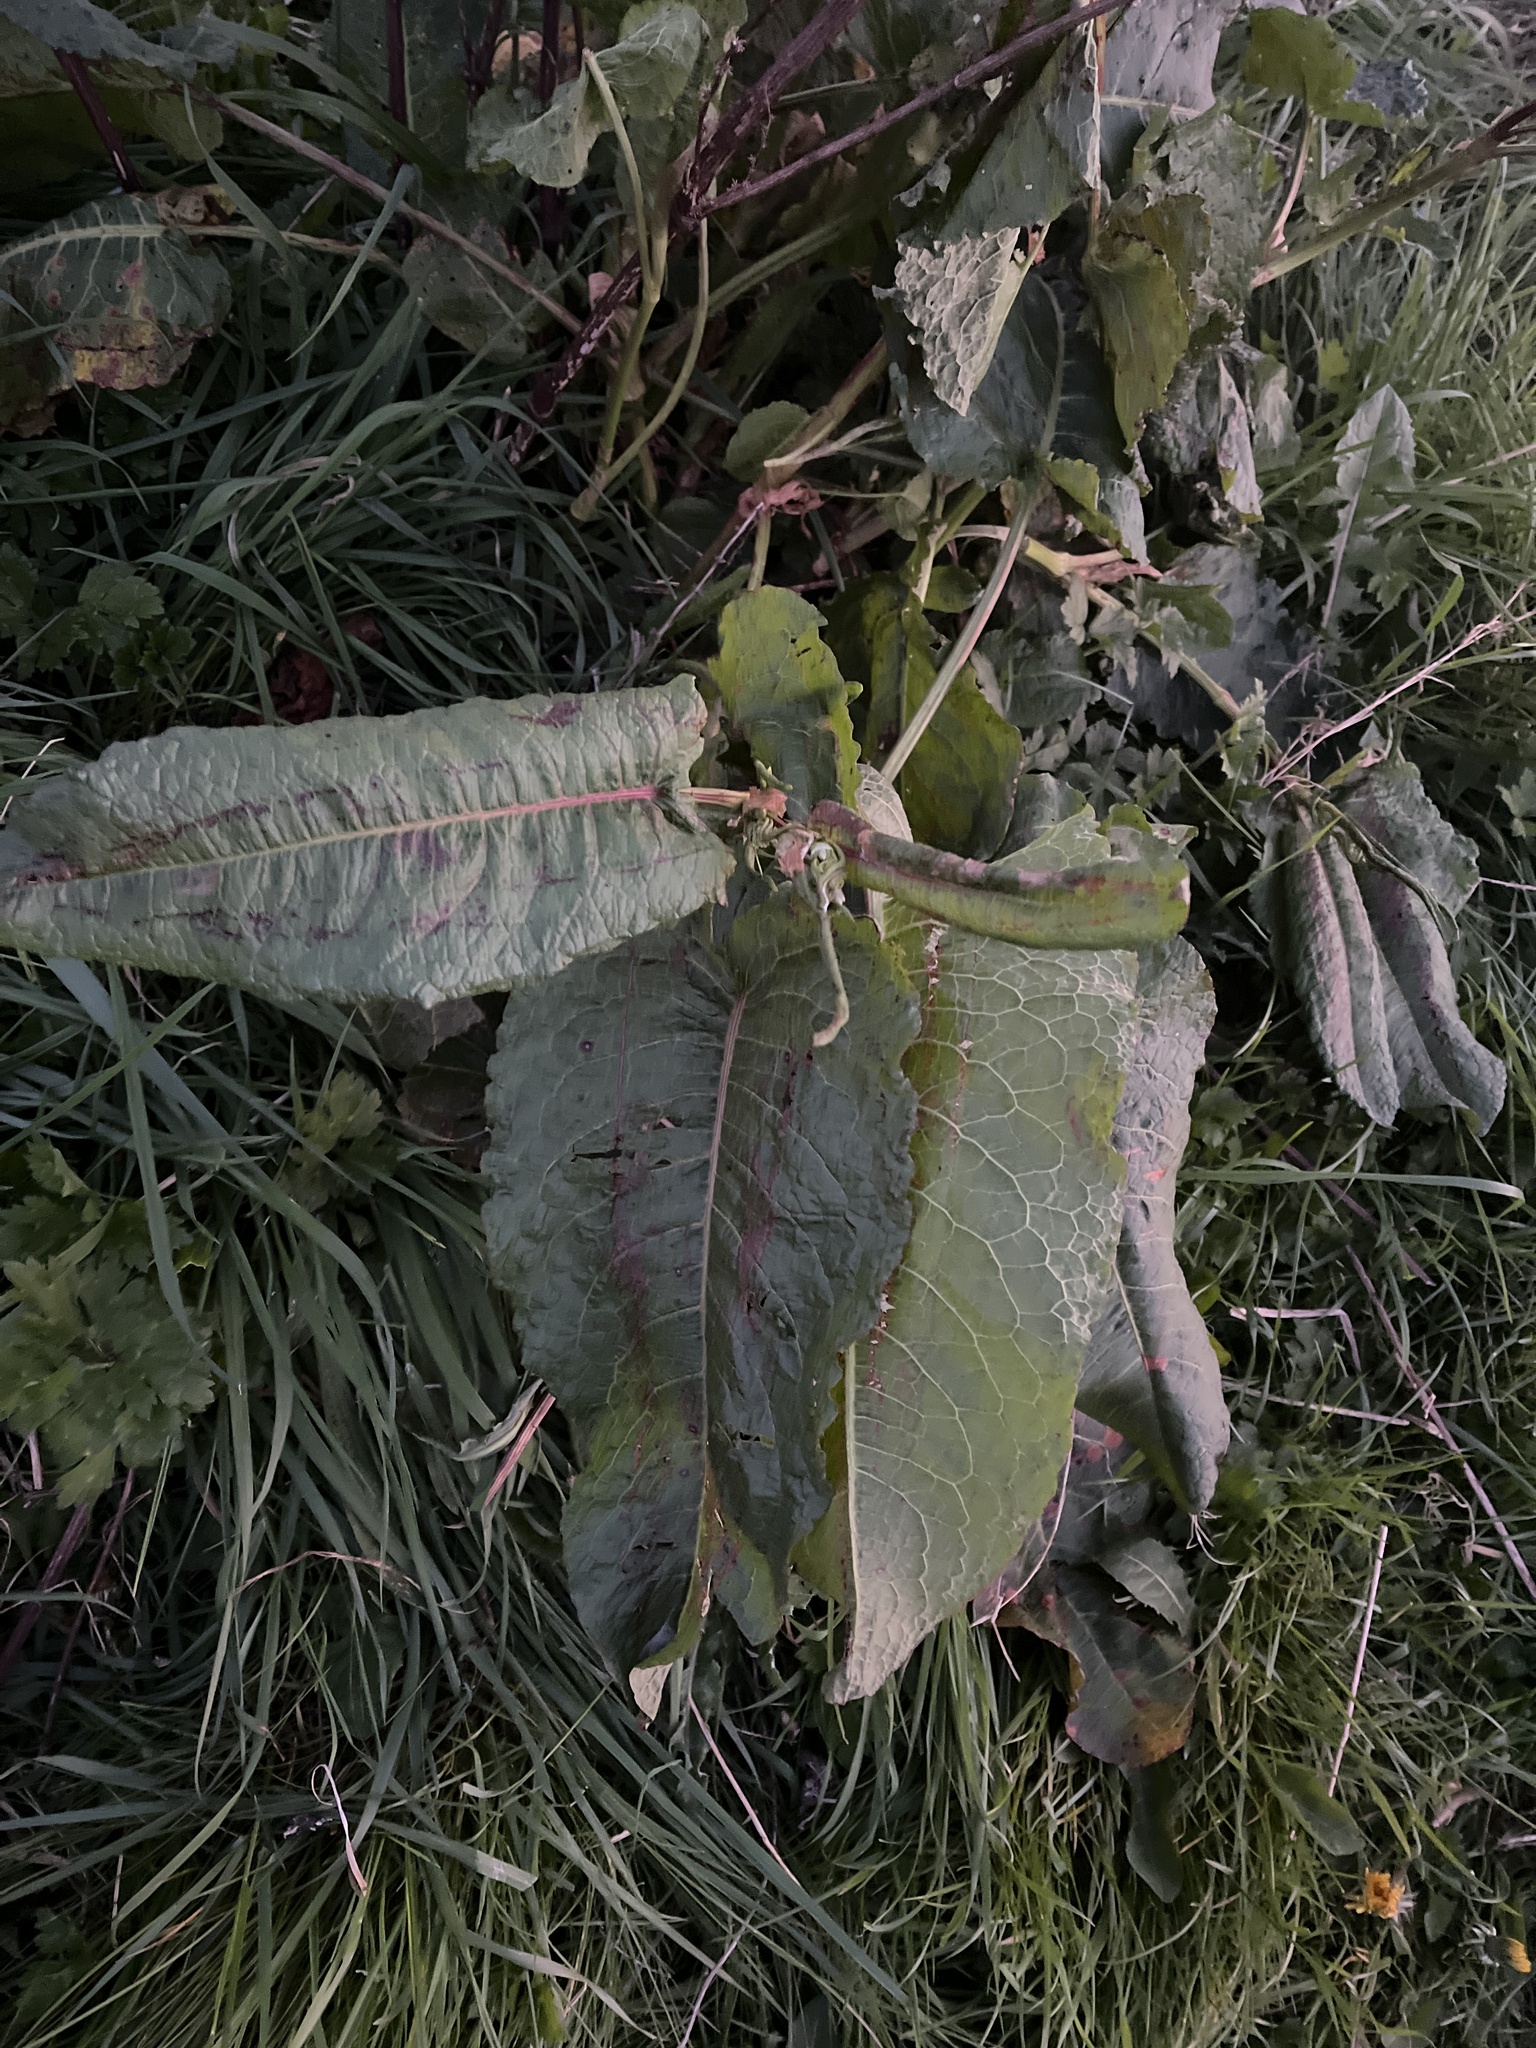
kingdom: Plantae
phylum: Tracheophyta
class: Magnoliopsida
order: Caryophyllales
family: Polygonaceae
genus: Rumex
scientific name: Rumex obtusifolius
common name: Bitter dock
